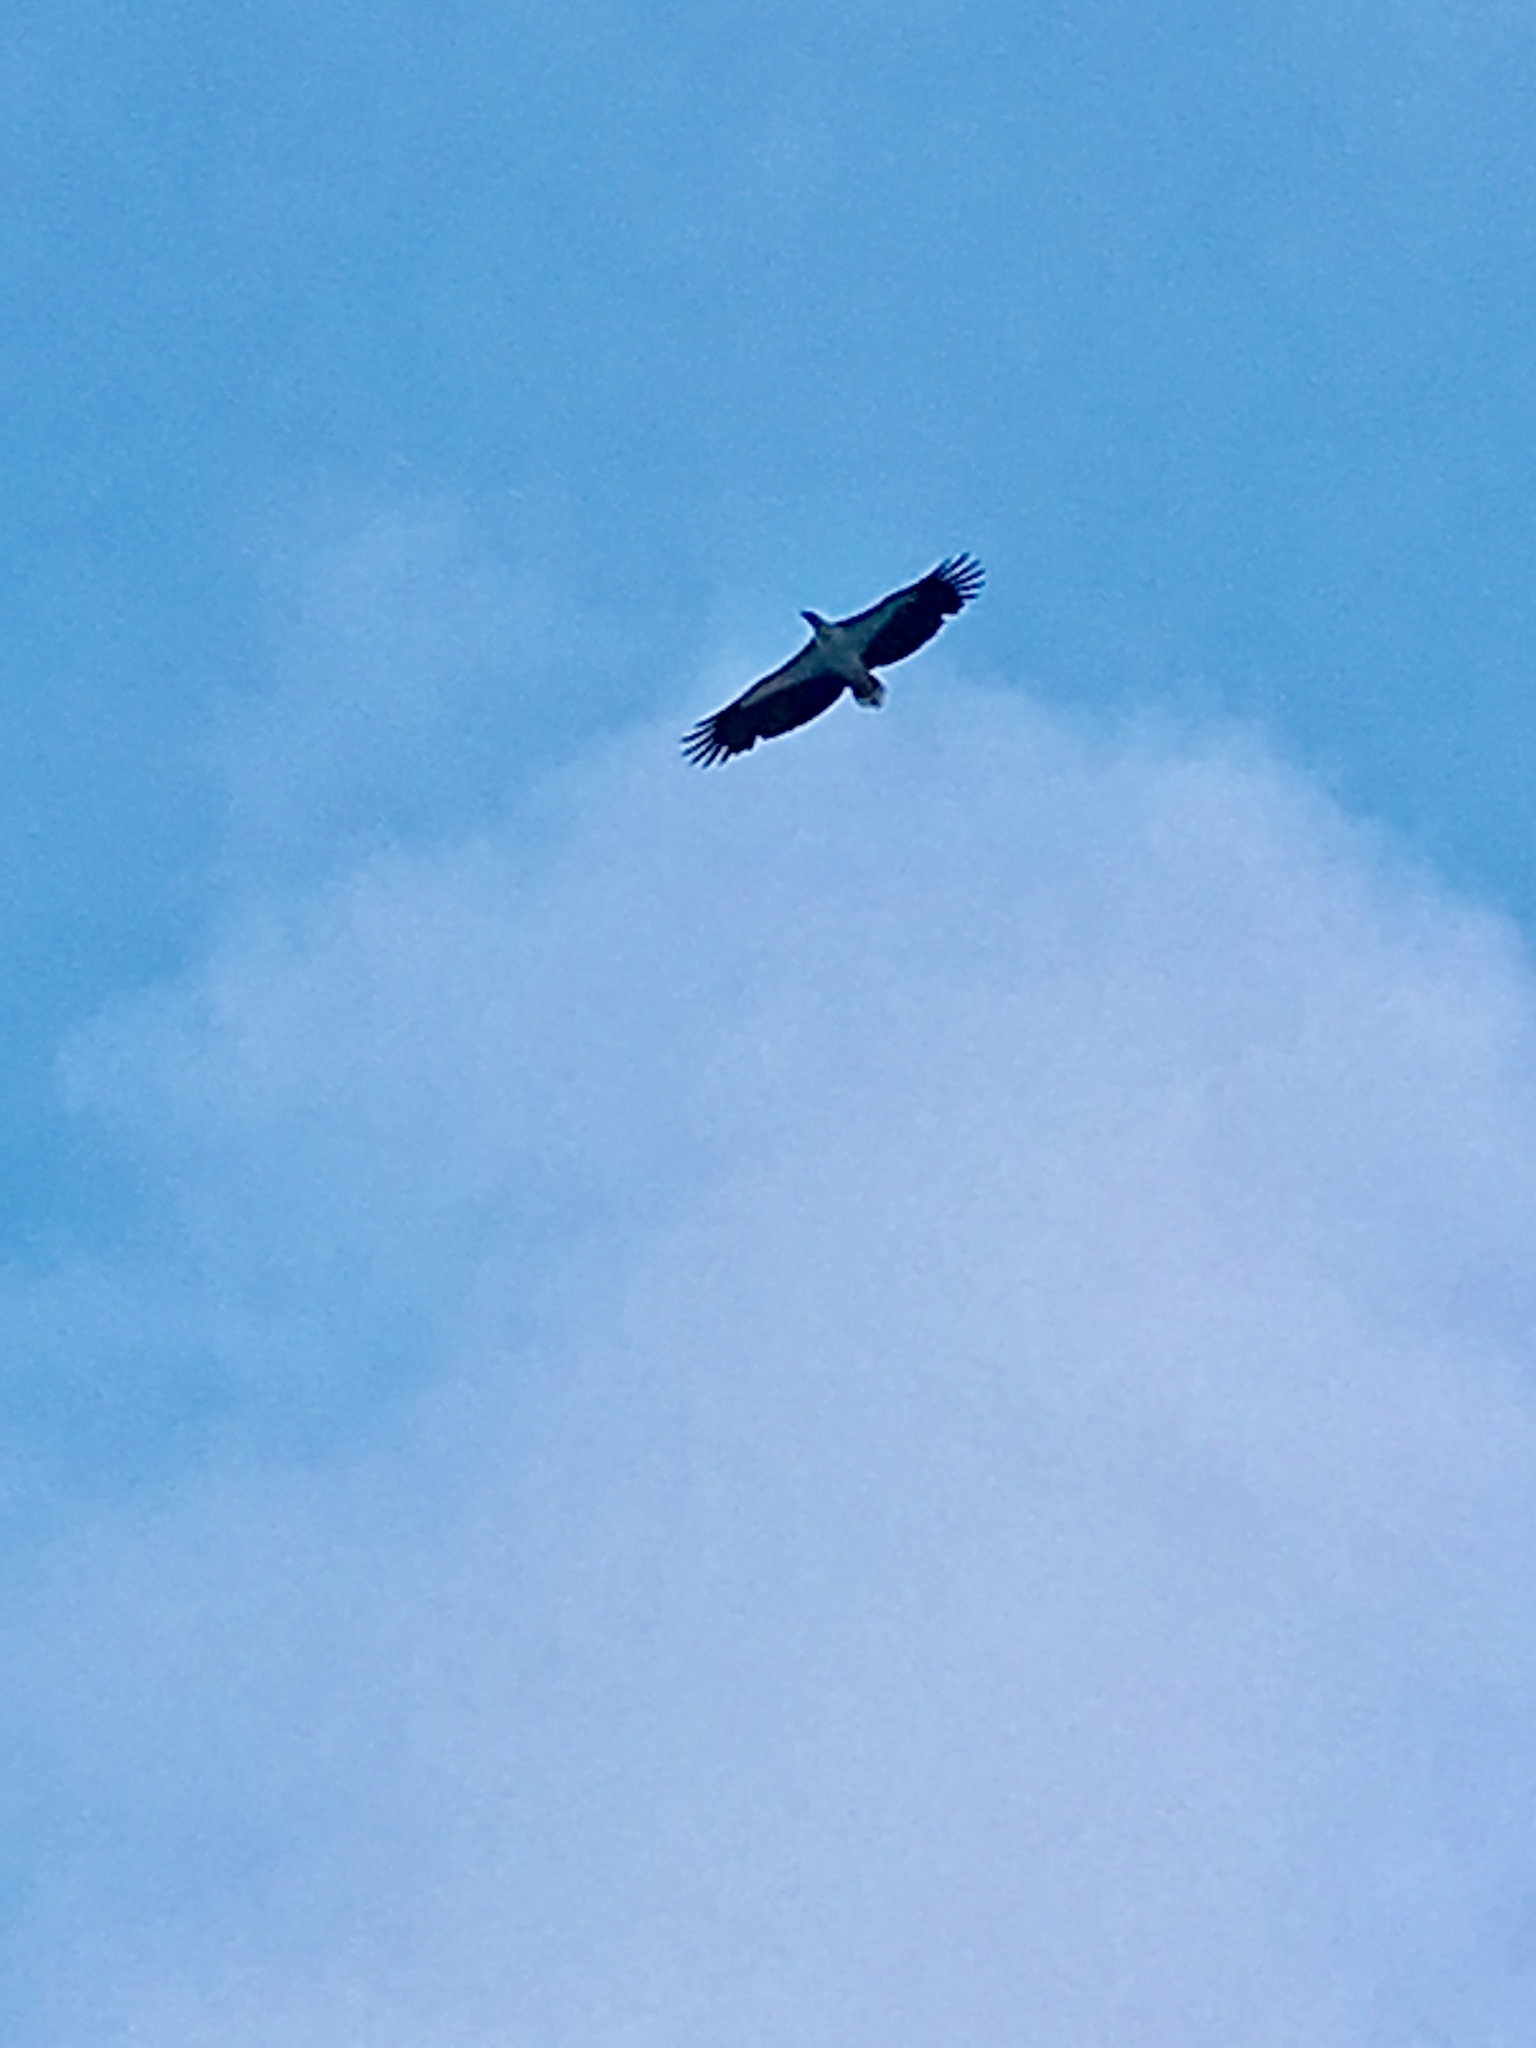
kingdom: Animalia
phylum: Chordata
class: Aves
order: Accipitriformes
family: Accipitridae
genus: Haliaeetus
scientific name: Haliaeetus leucogaster
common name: White-bellied sea eagle
